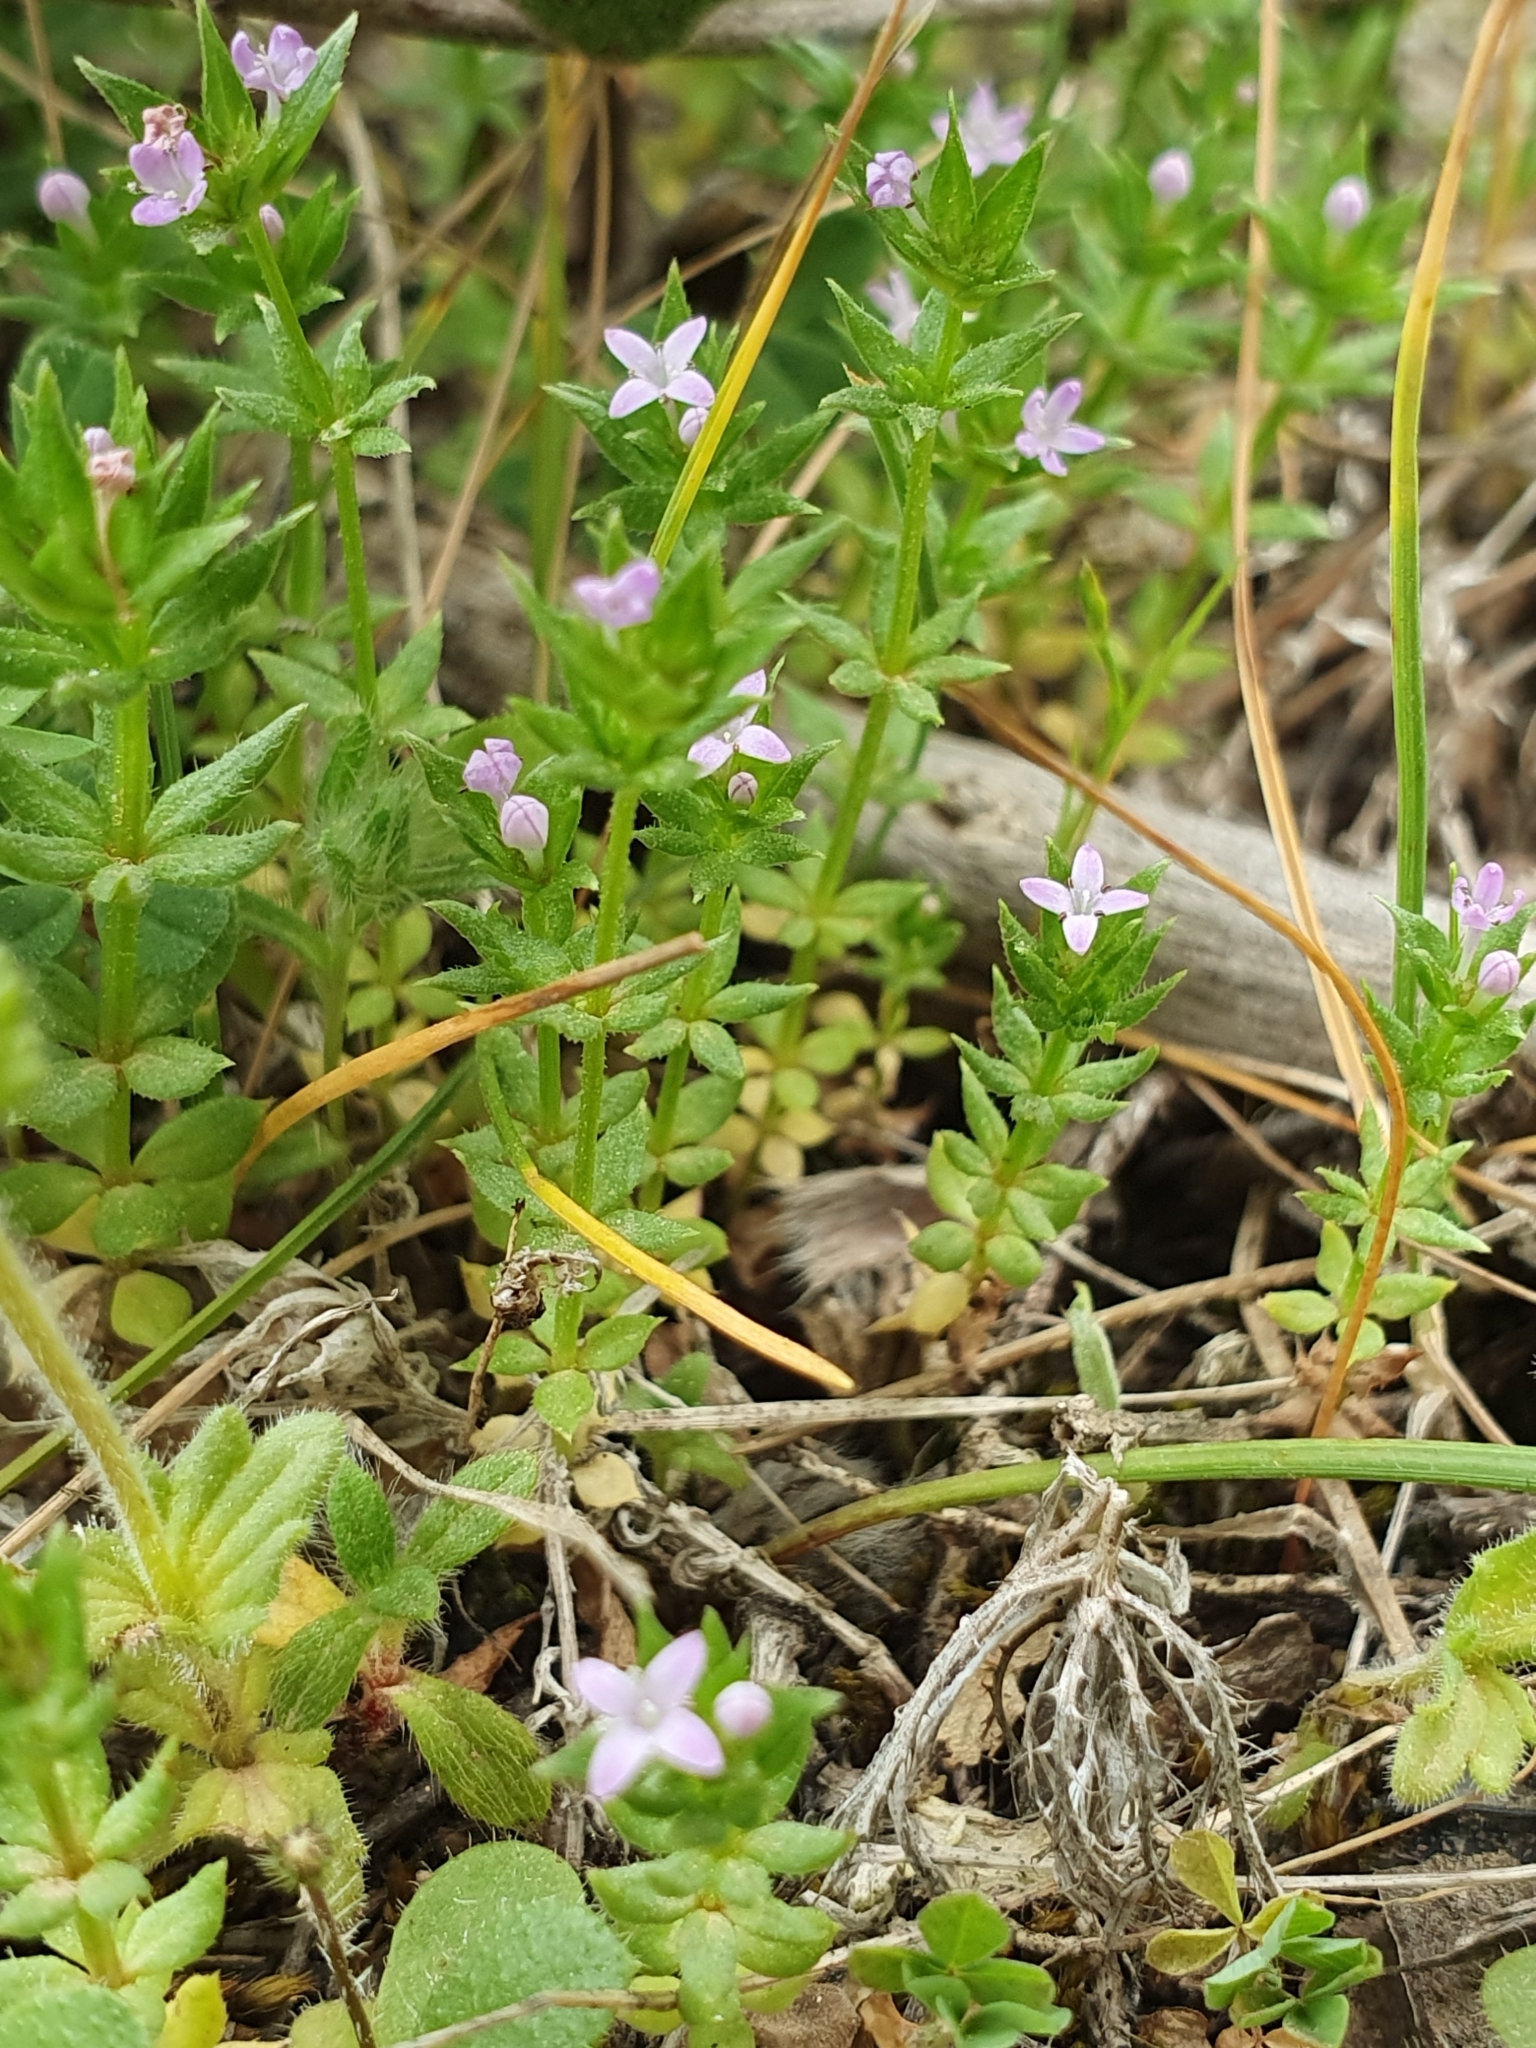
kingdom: Plantae
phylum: Tracheophyta
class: Magnoliopsida
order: Gentianales
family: Rubiaceae
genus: Sherardia
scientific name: Sherardia arvensis
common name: Field madder
